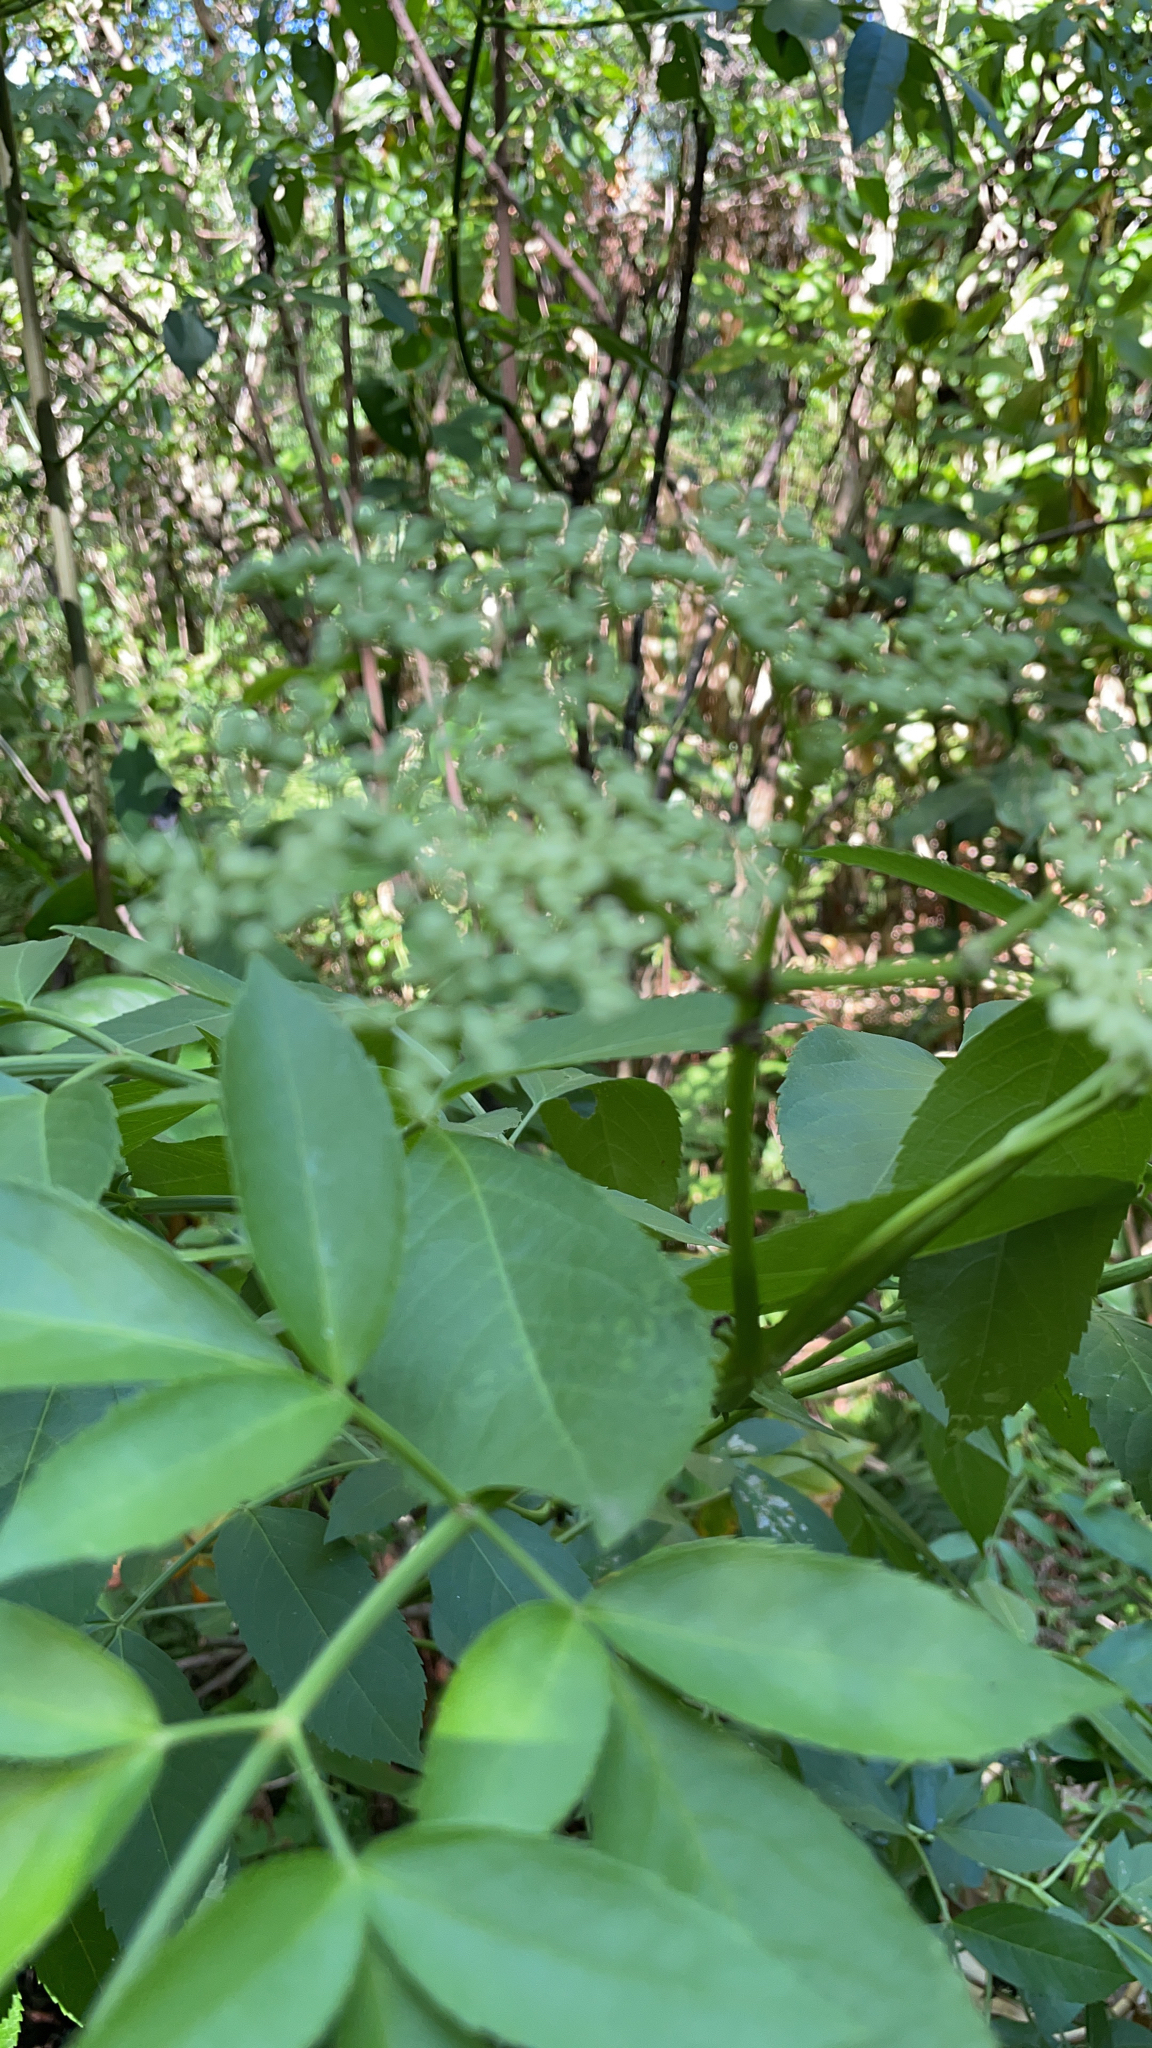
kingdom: Plantae
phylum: Tracheophyta
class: Magnoliopsida
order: Dipsacales
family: Viburnaceae
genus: Sambucus
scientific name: Sambucus canadensis
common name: American elder
